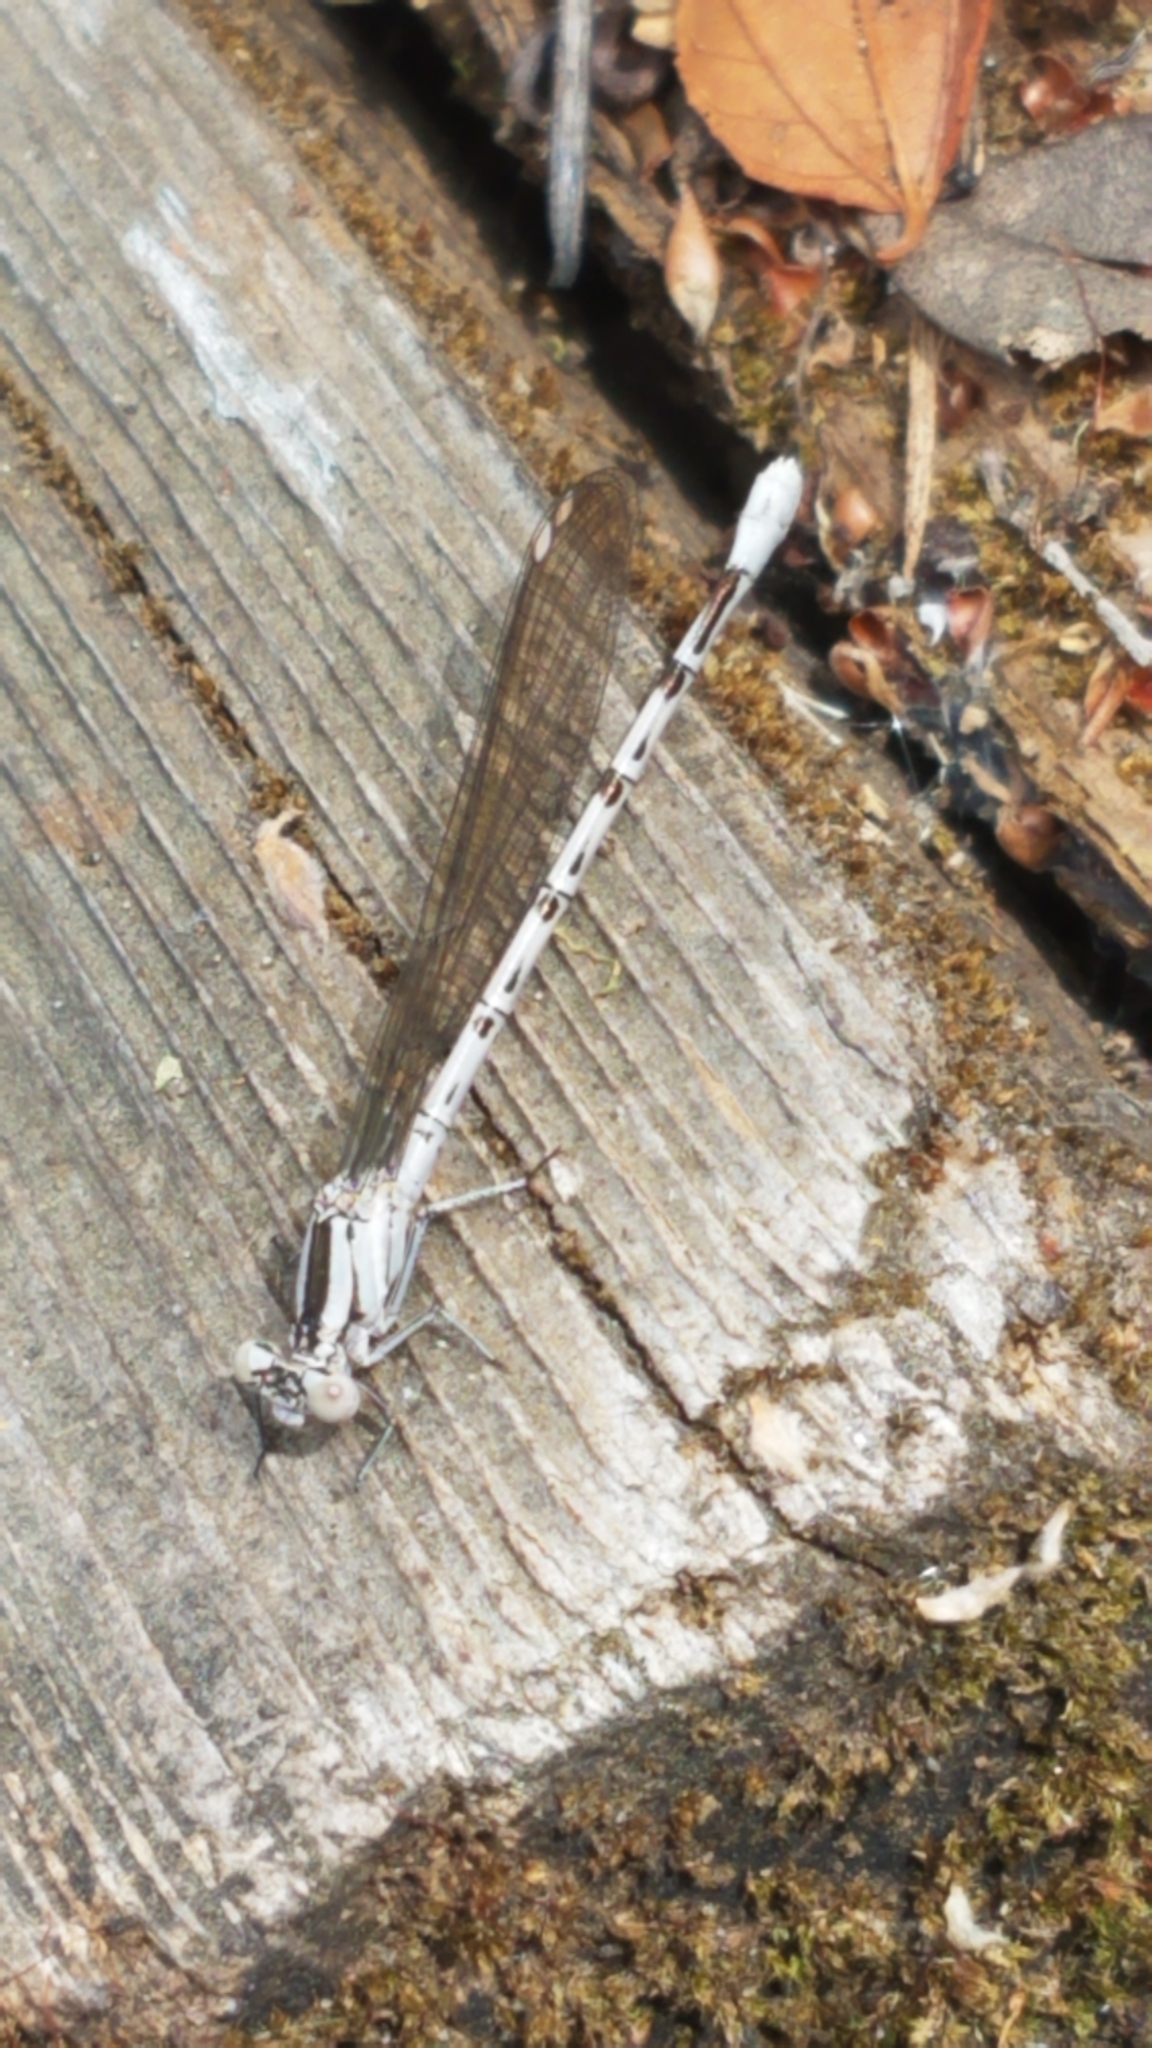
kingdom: Animalia
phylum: Arthropoda
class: Insecta
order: Odonata
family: Coenagrionidae
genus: Argia
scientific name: Argia vivida
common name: Vivid dancer
